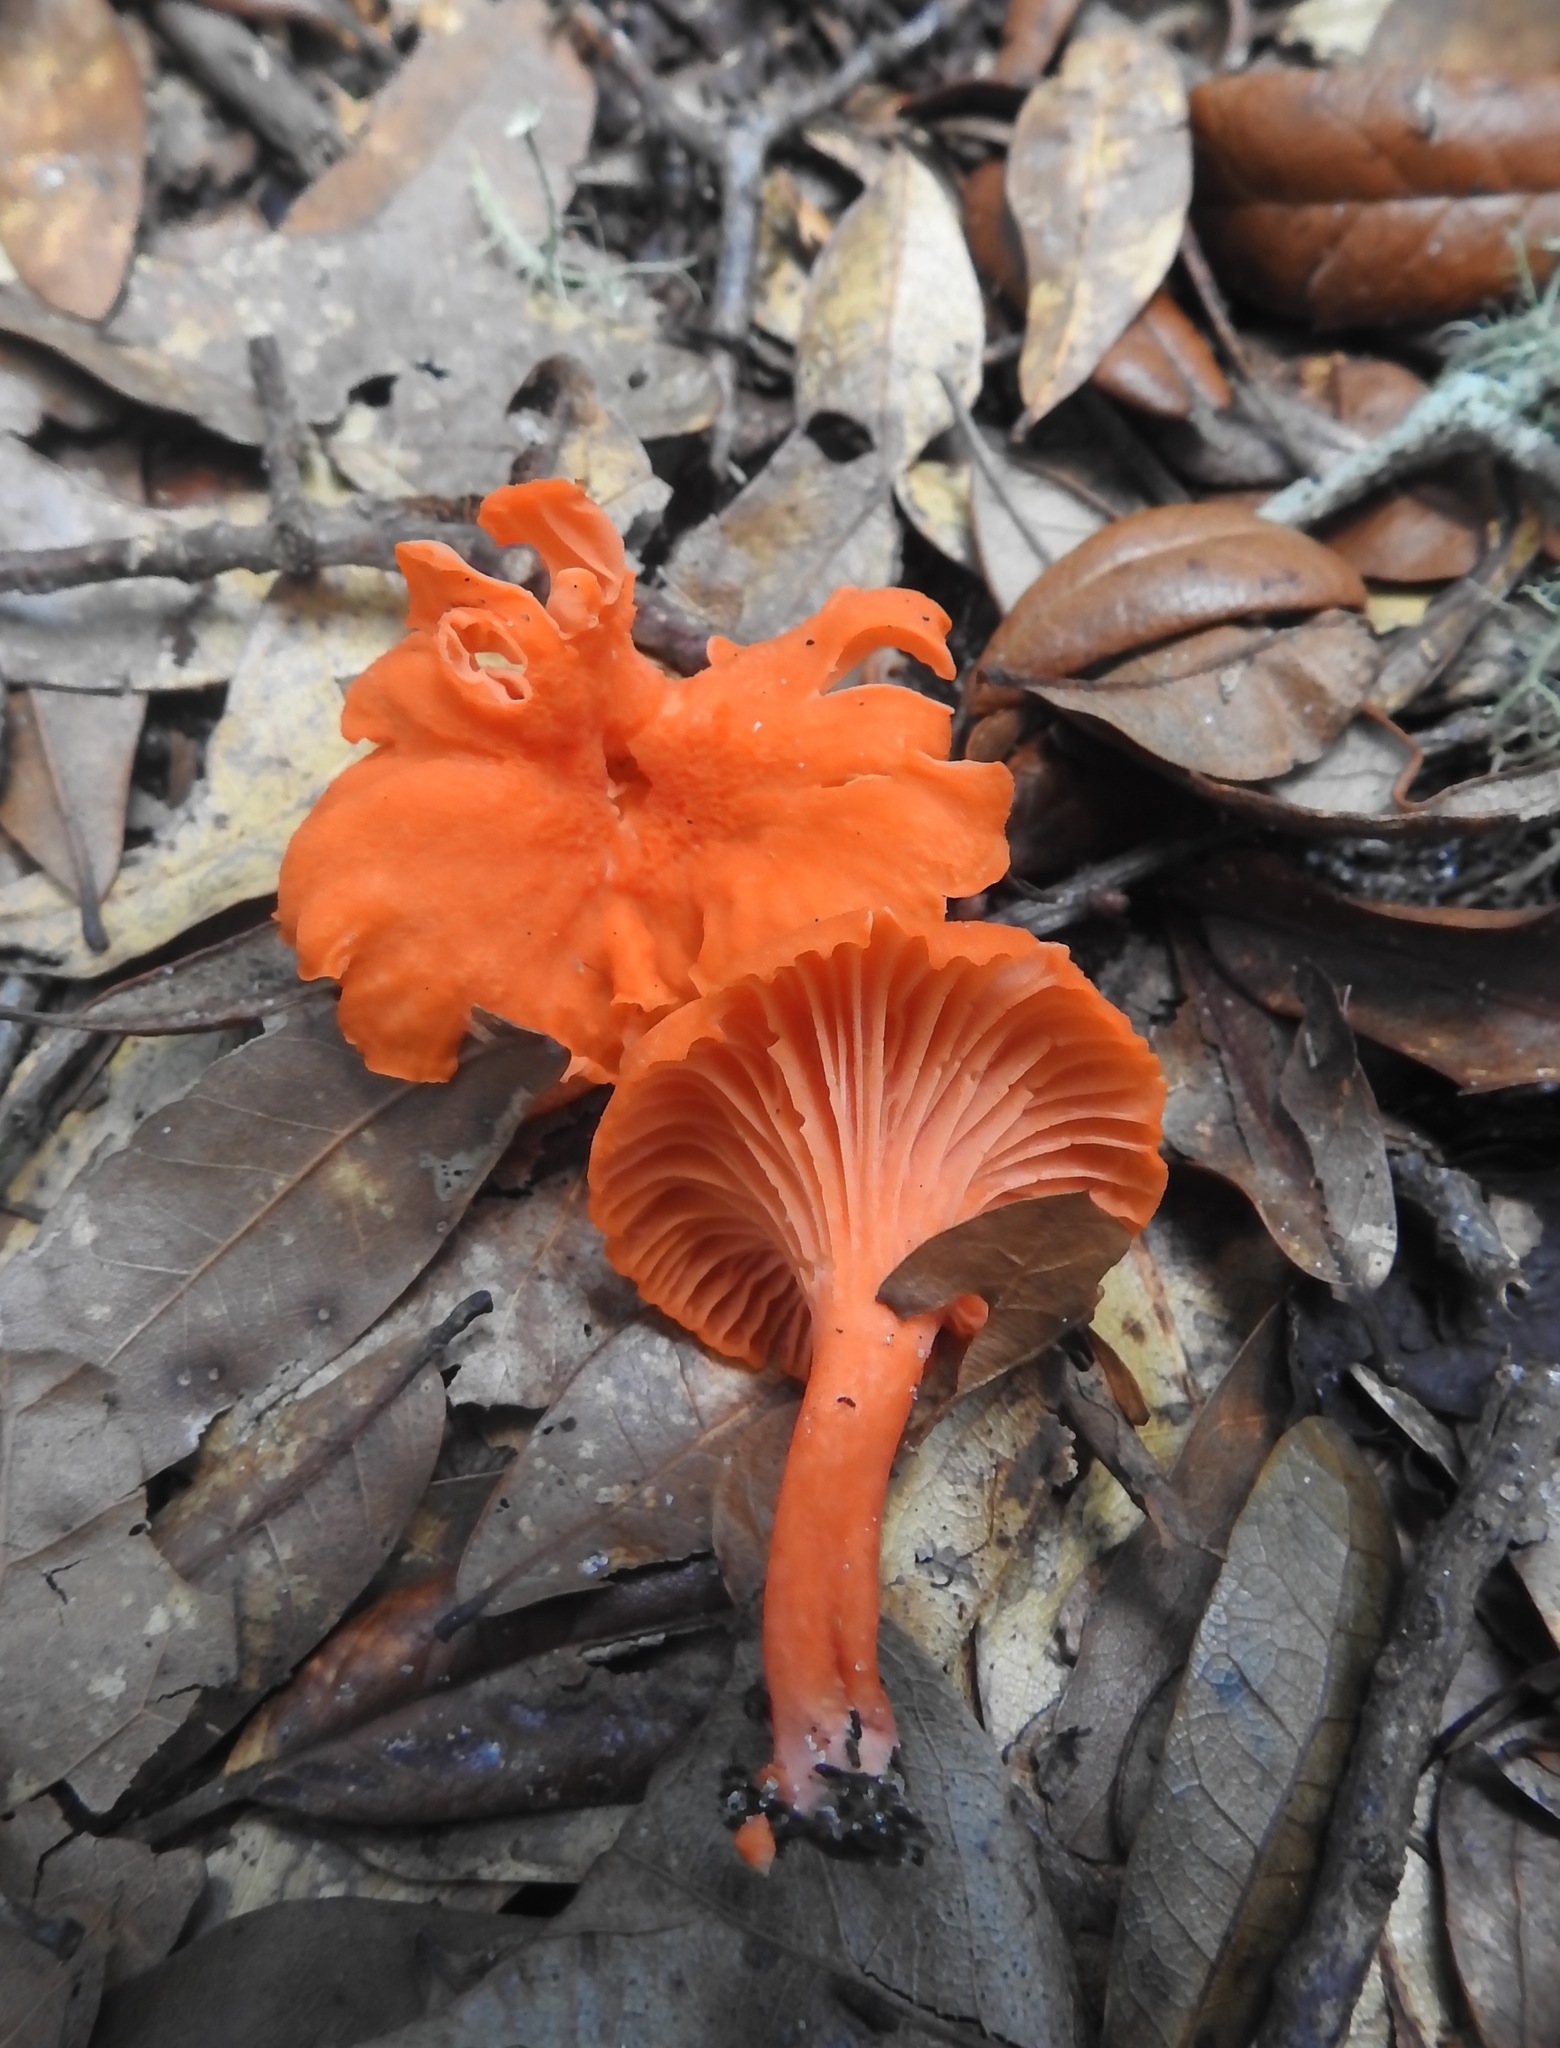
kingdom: Fungi
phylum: Basidiomycota
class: Agaricomycetes
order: Cantharellales
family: Hydnaceae
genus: Cantharellus
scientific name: Cantharellus cinnabarinus
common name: Cinnabar chanterelle
